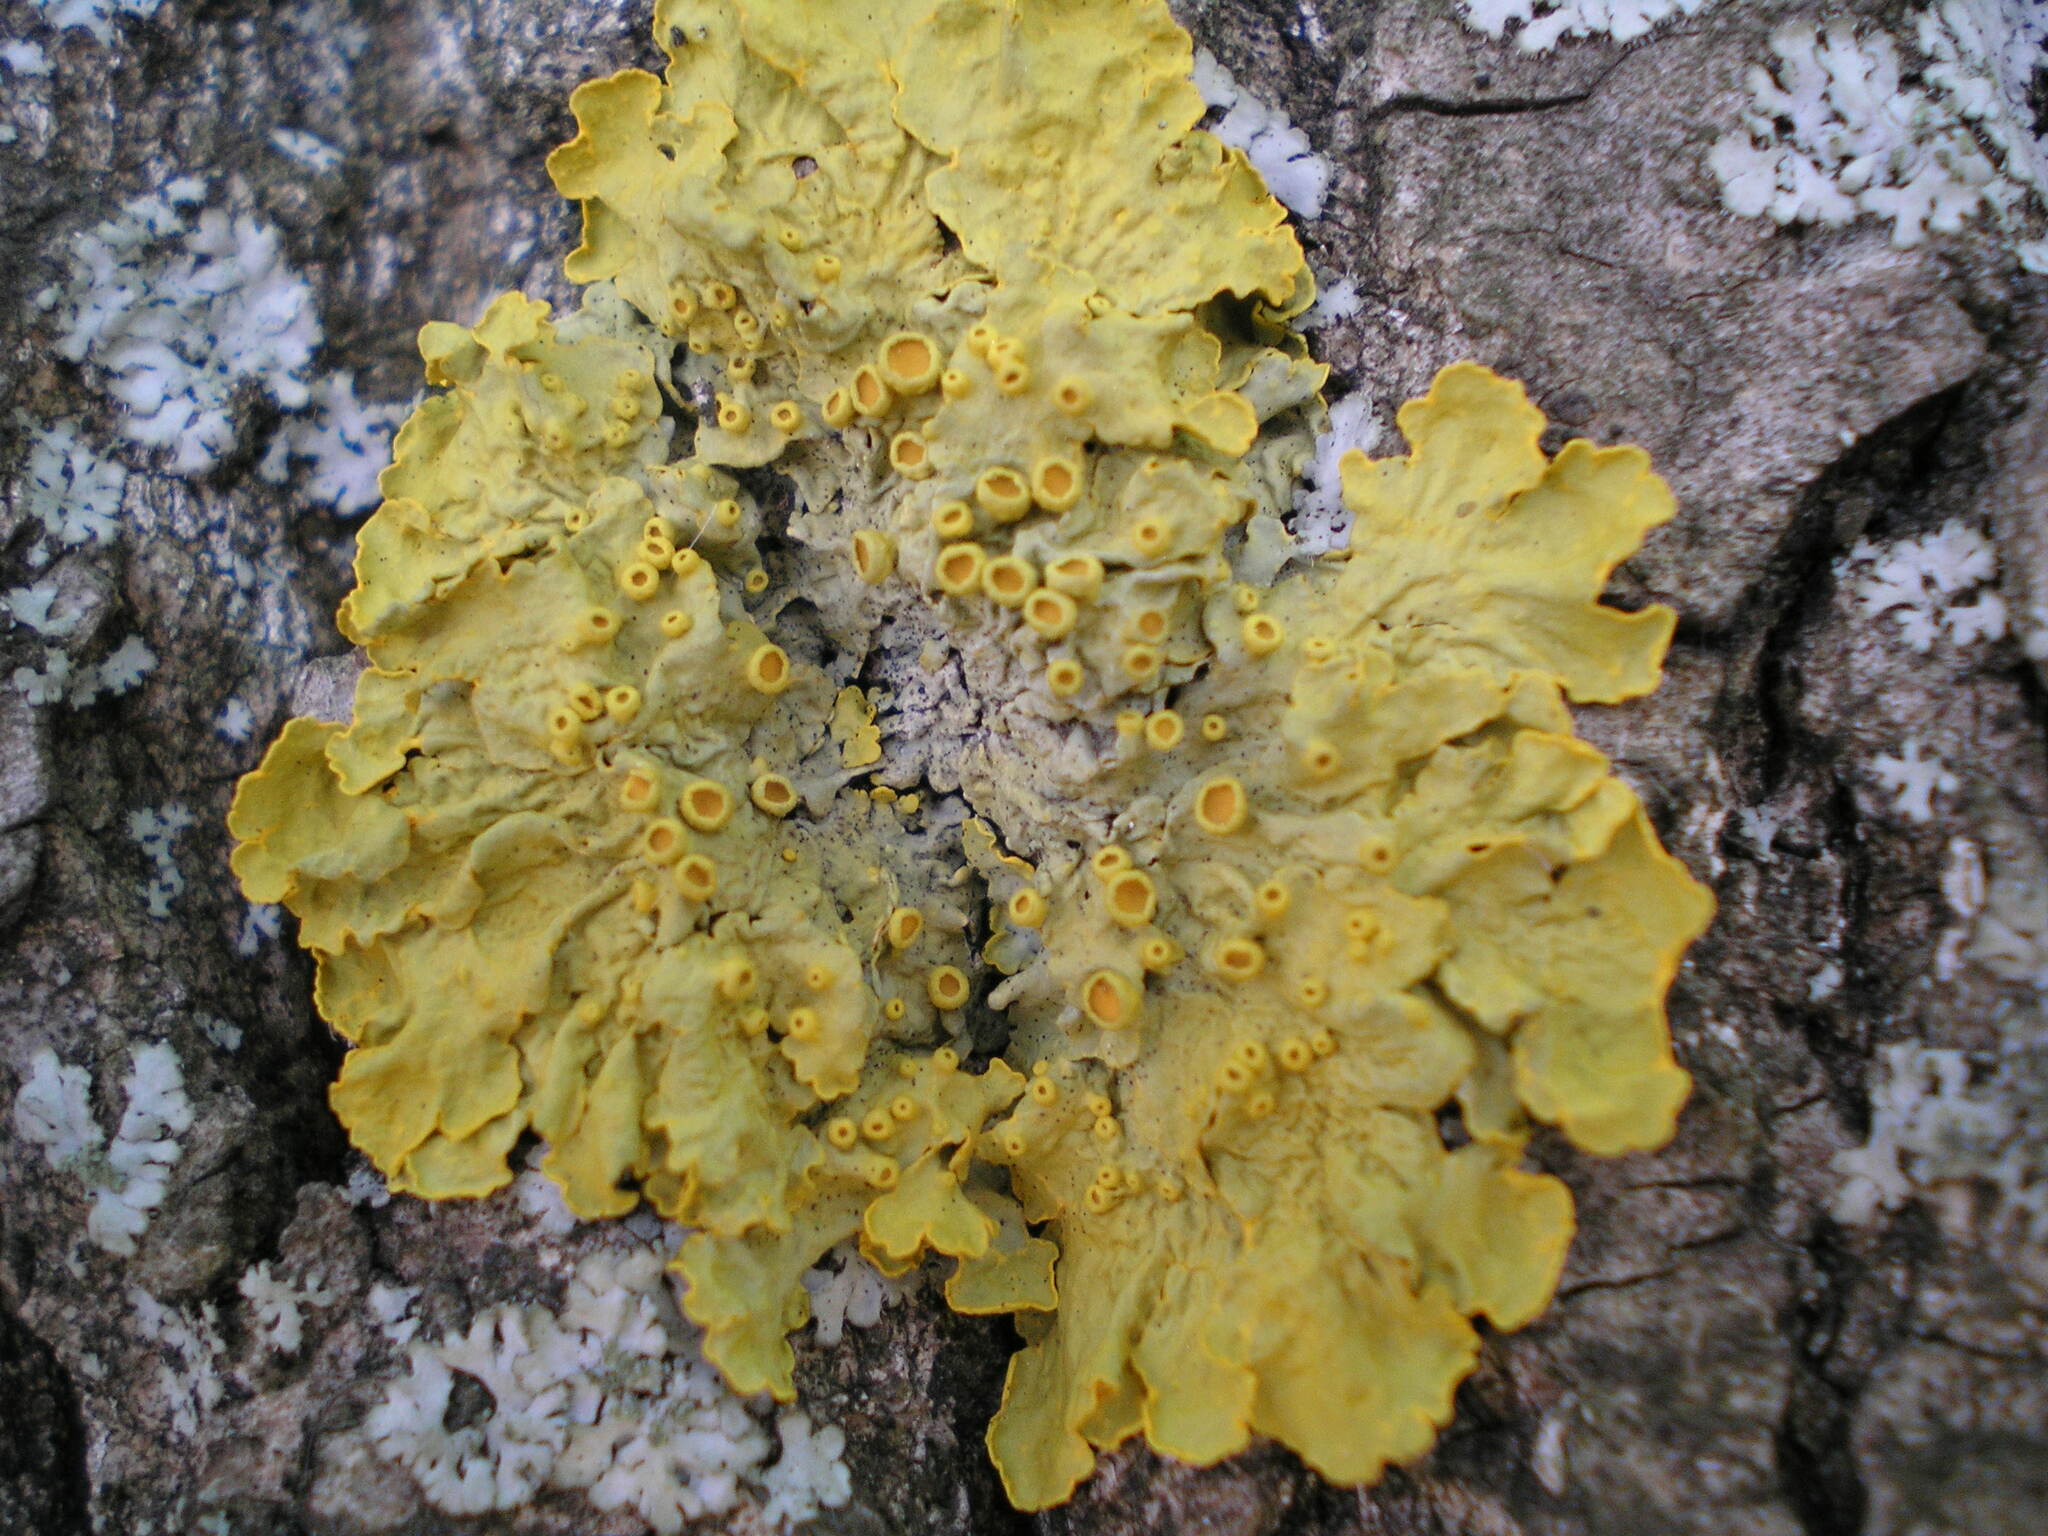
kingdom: Fungi
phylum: Ascomycota
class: Lecanoromycetes
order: Teloschistales
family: Teloschistaceae
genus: Xanthoria
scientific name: Xanthoria parietina
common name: Common orange lichen
